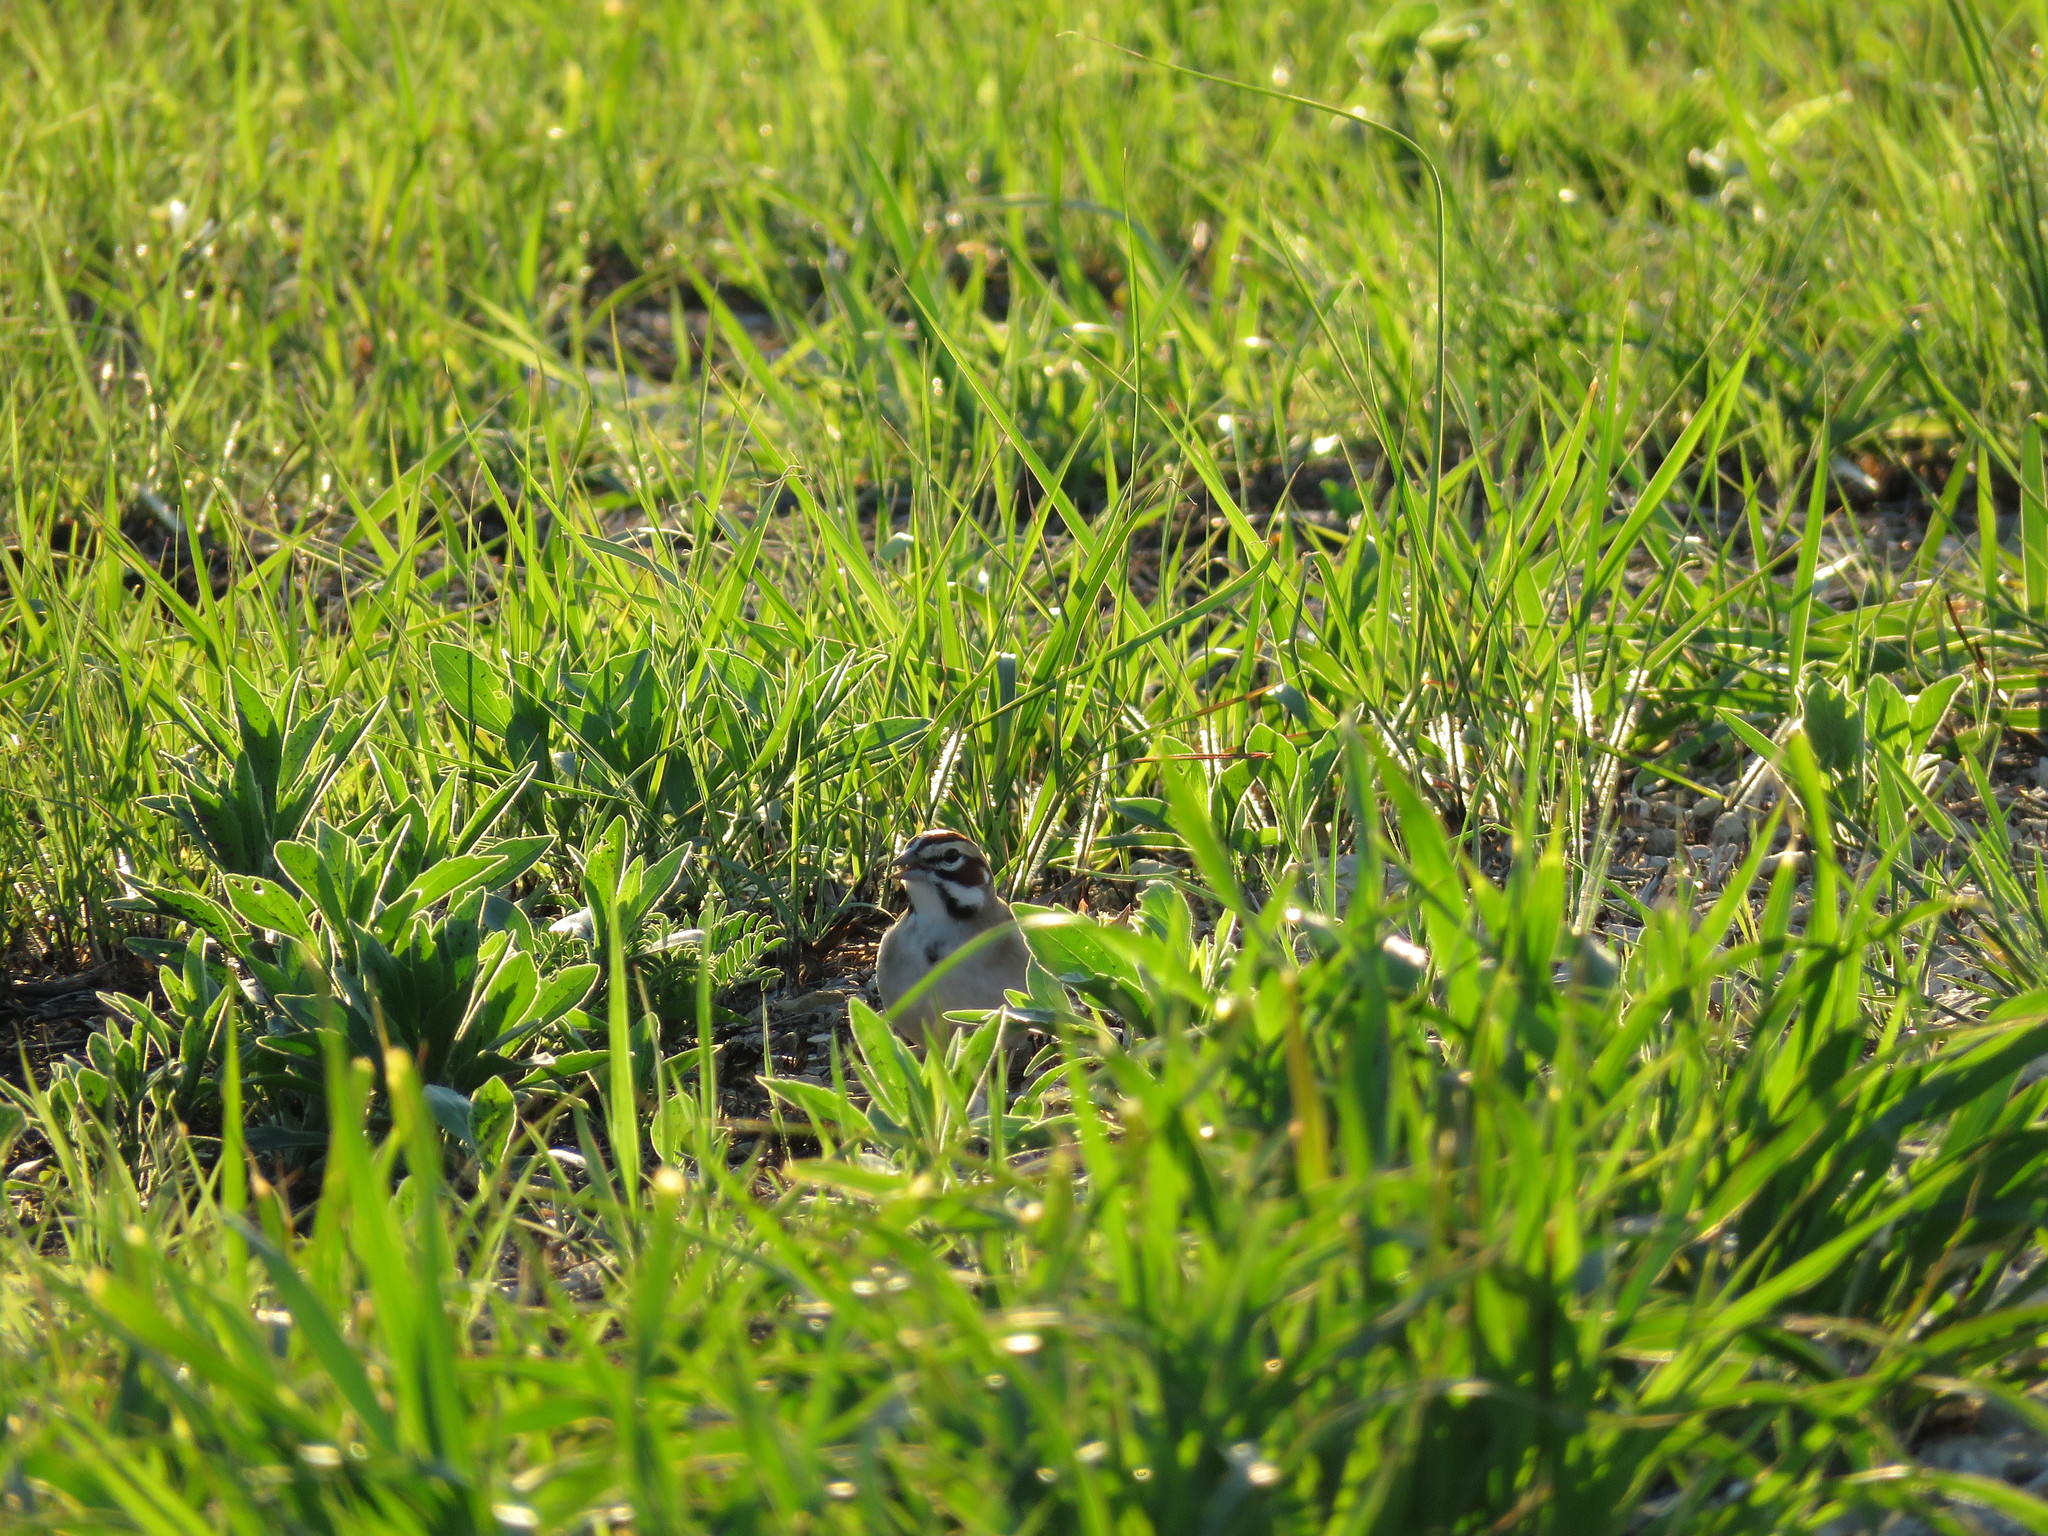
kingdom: Animalia
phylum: Chordata
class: Aves
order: Passeriformes
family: Passerellidae
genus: Chondestes
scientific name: Chondestes grammacus
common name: Lark sparrow
